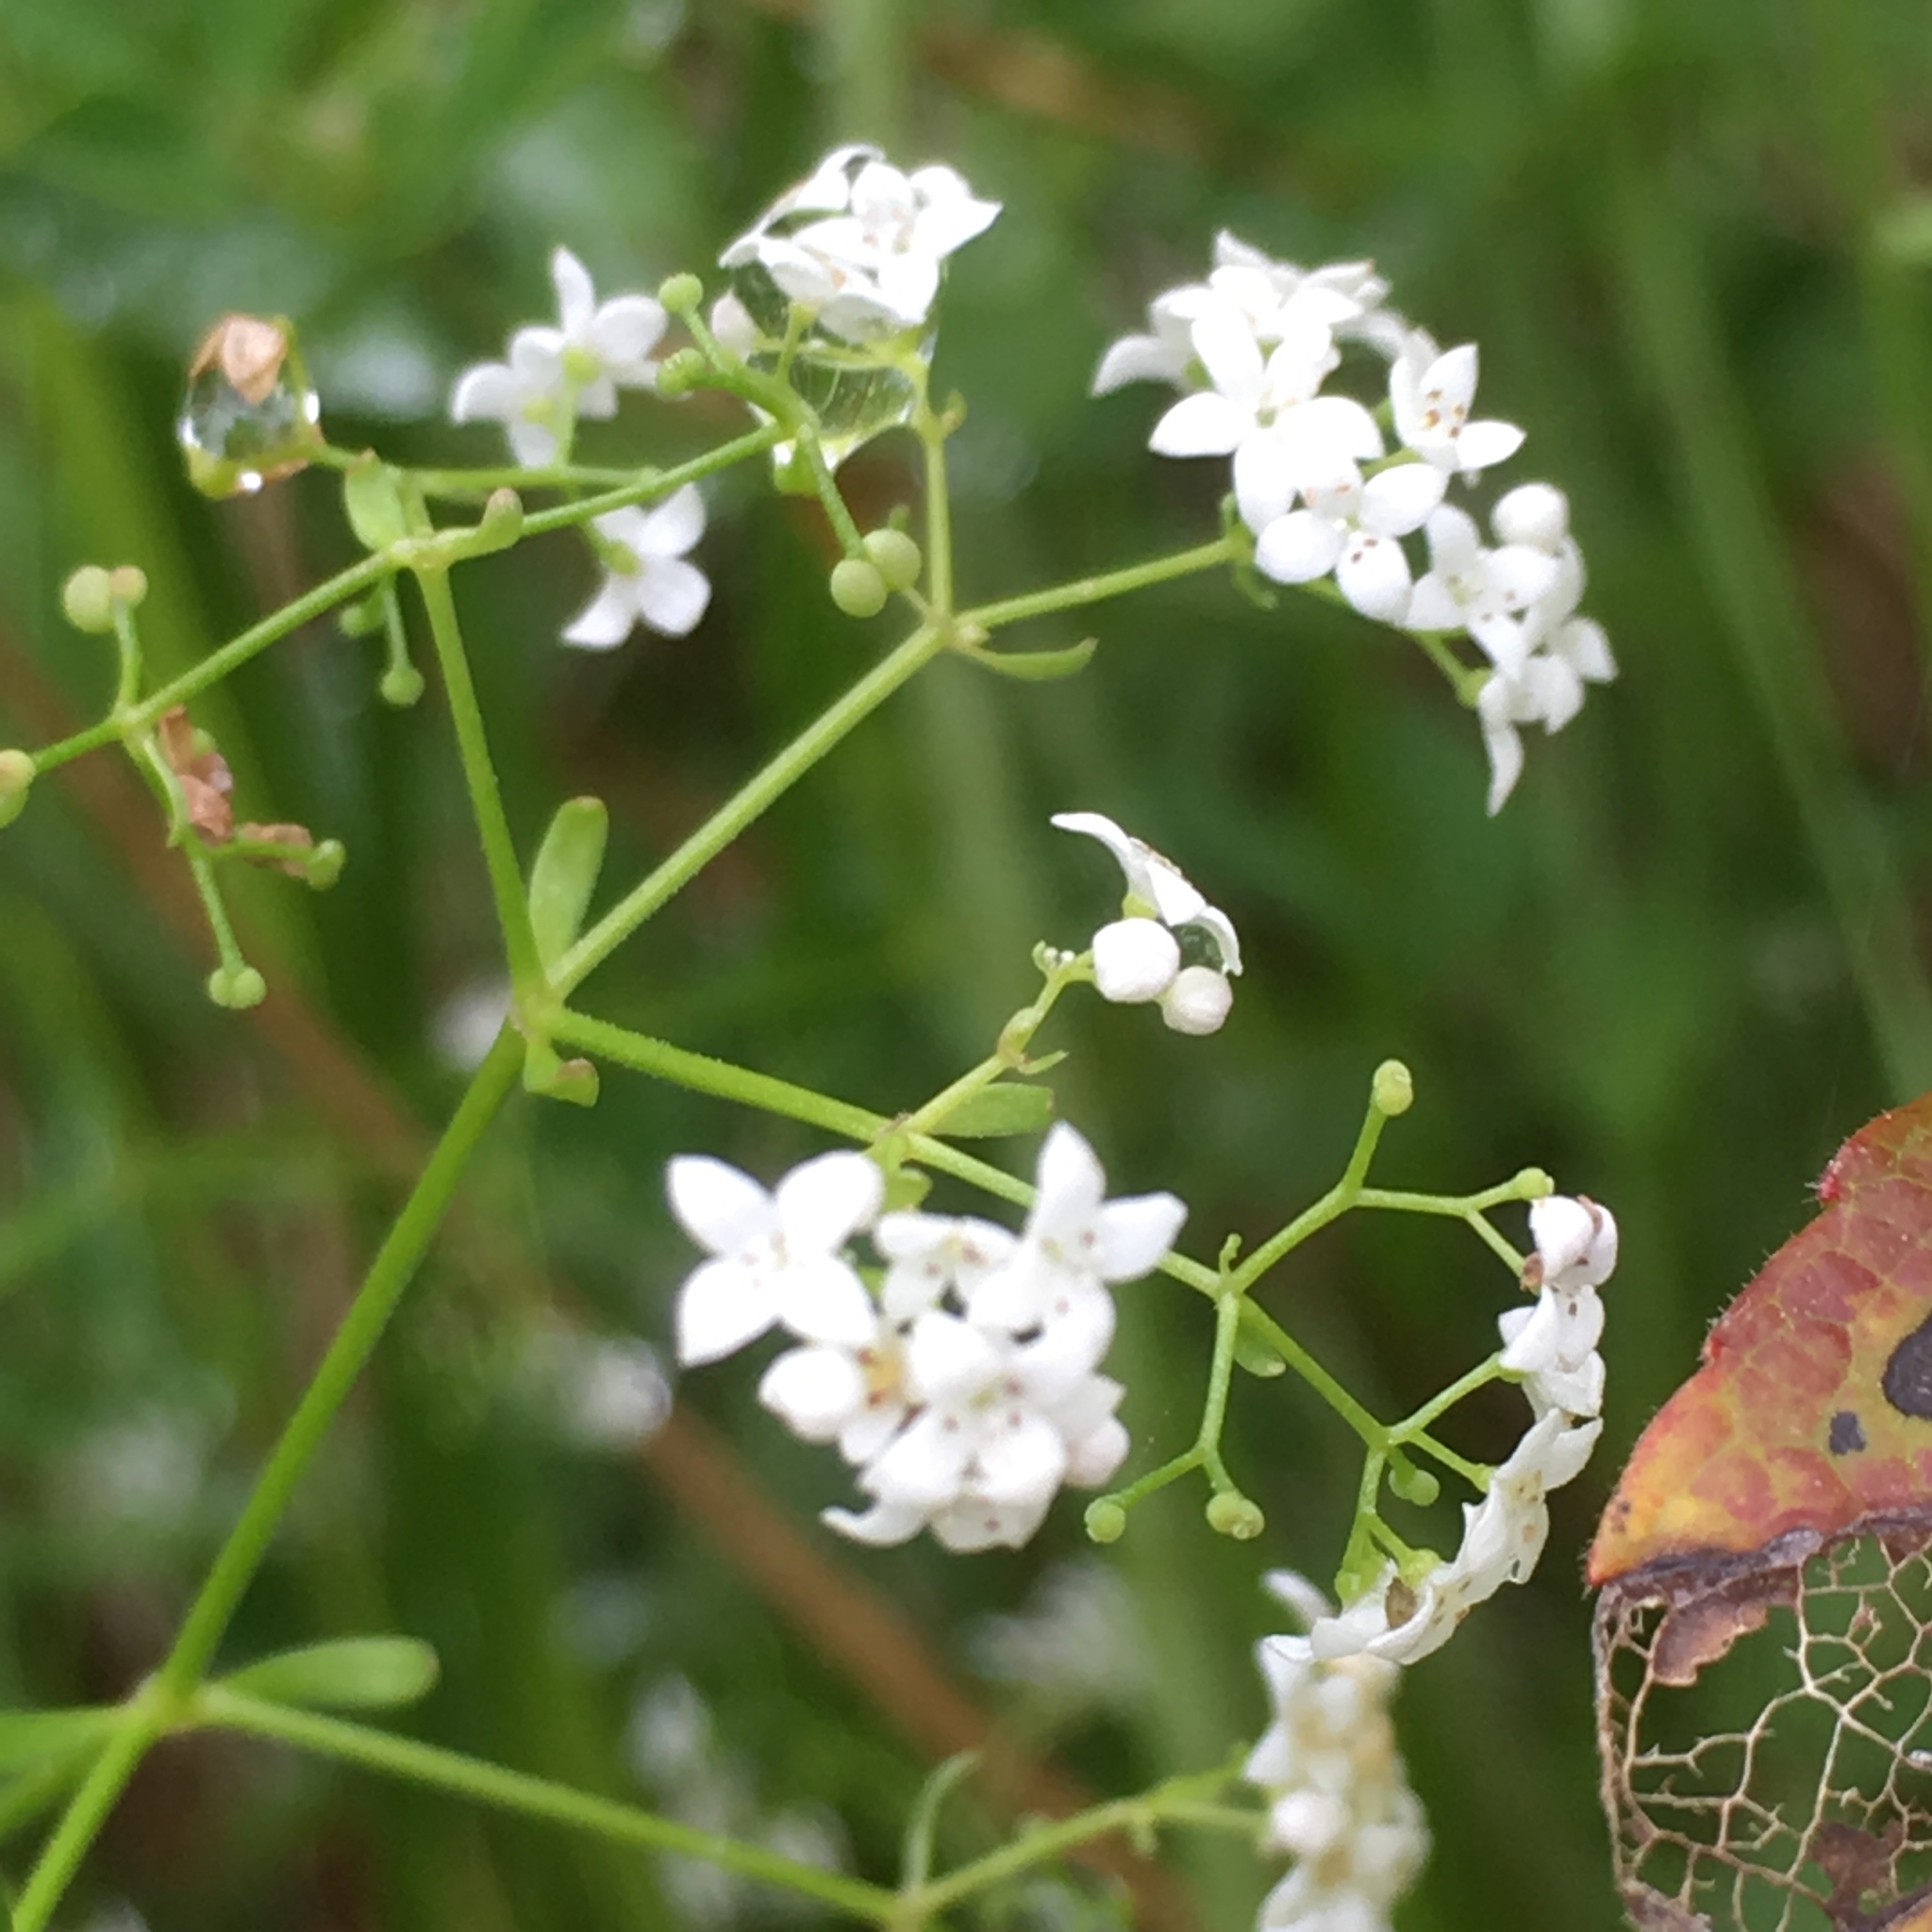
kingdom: Plantae
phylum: Tracheophyta
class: Magnoliopsida
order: Gentianales
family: Rubiaceae
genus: Galium
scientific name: Galium palustre
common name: Common marsh-bedstraw
